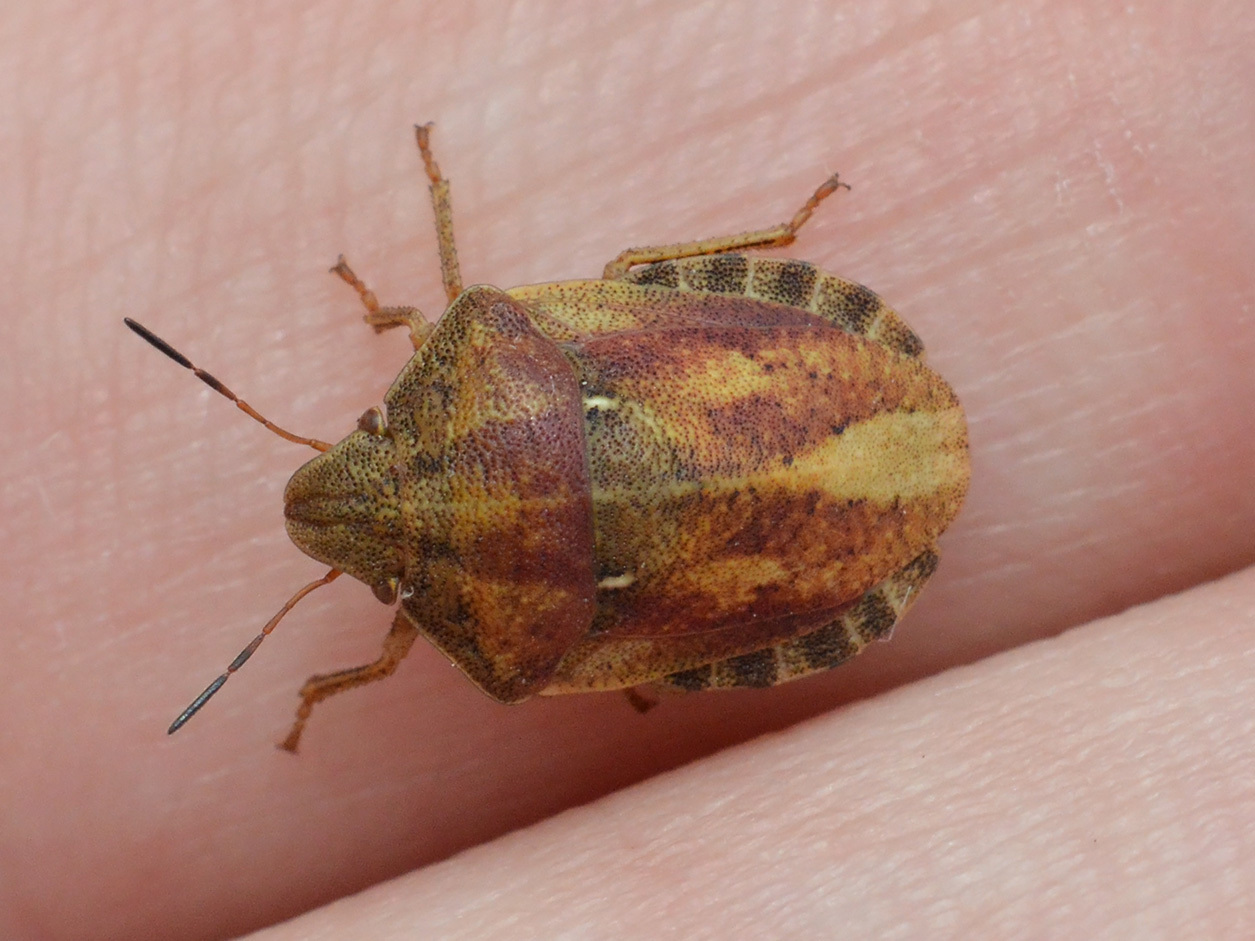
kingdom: Animalia
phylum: Arthropoda
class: Insecta
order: Hemiptera
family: Scutelleridae
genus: Eurygaster
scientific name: Eurygaster testudinaria
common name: Tortoise bug
